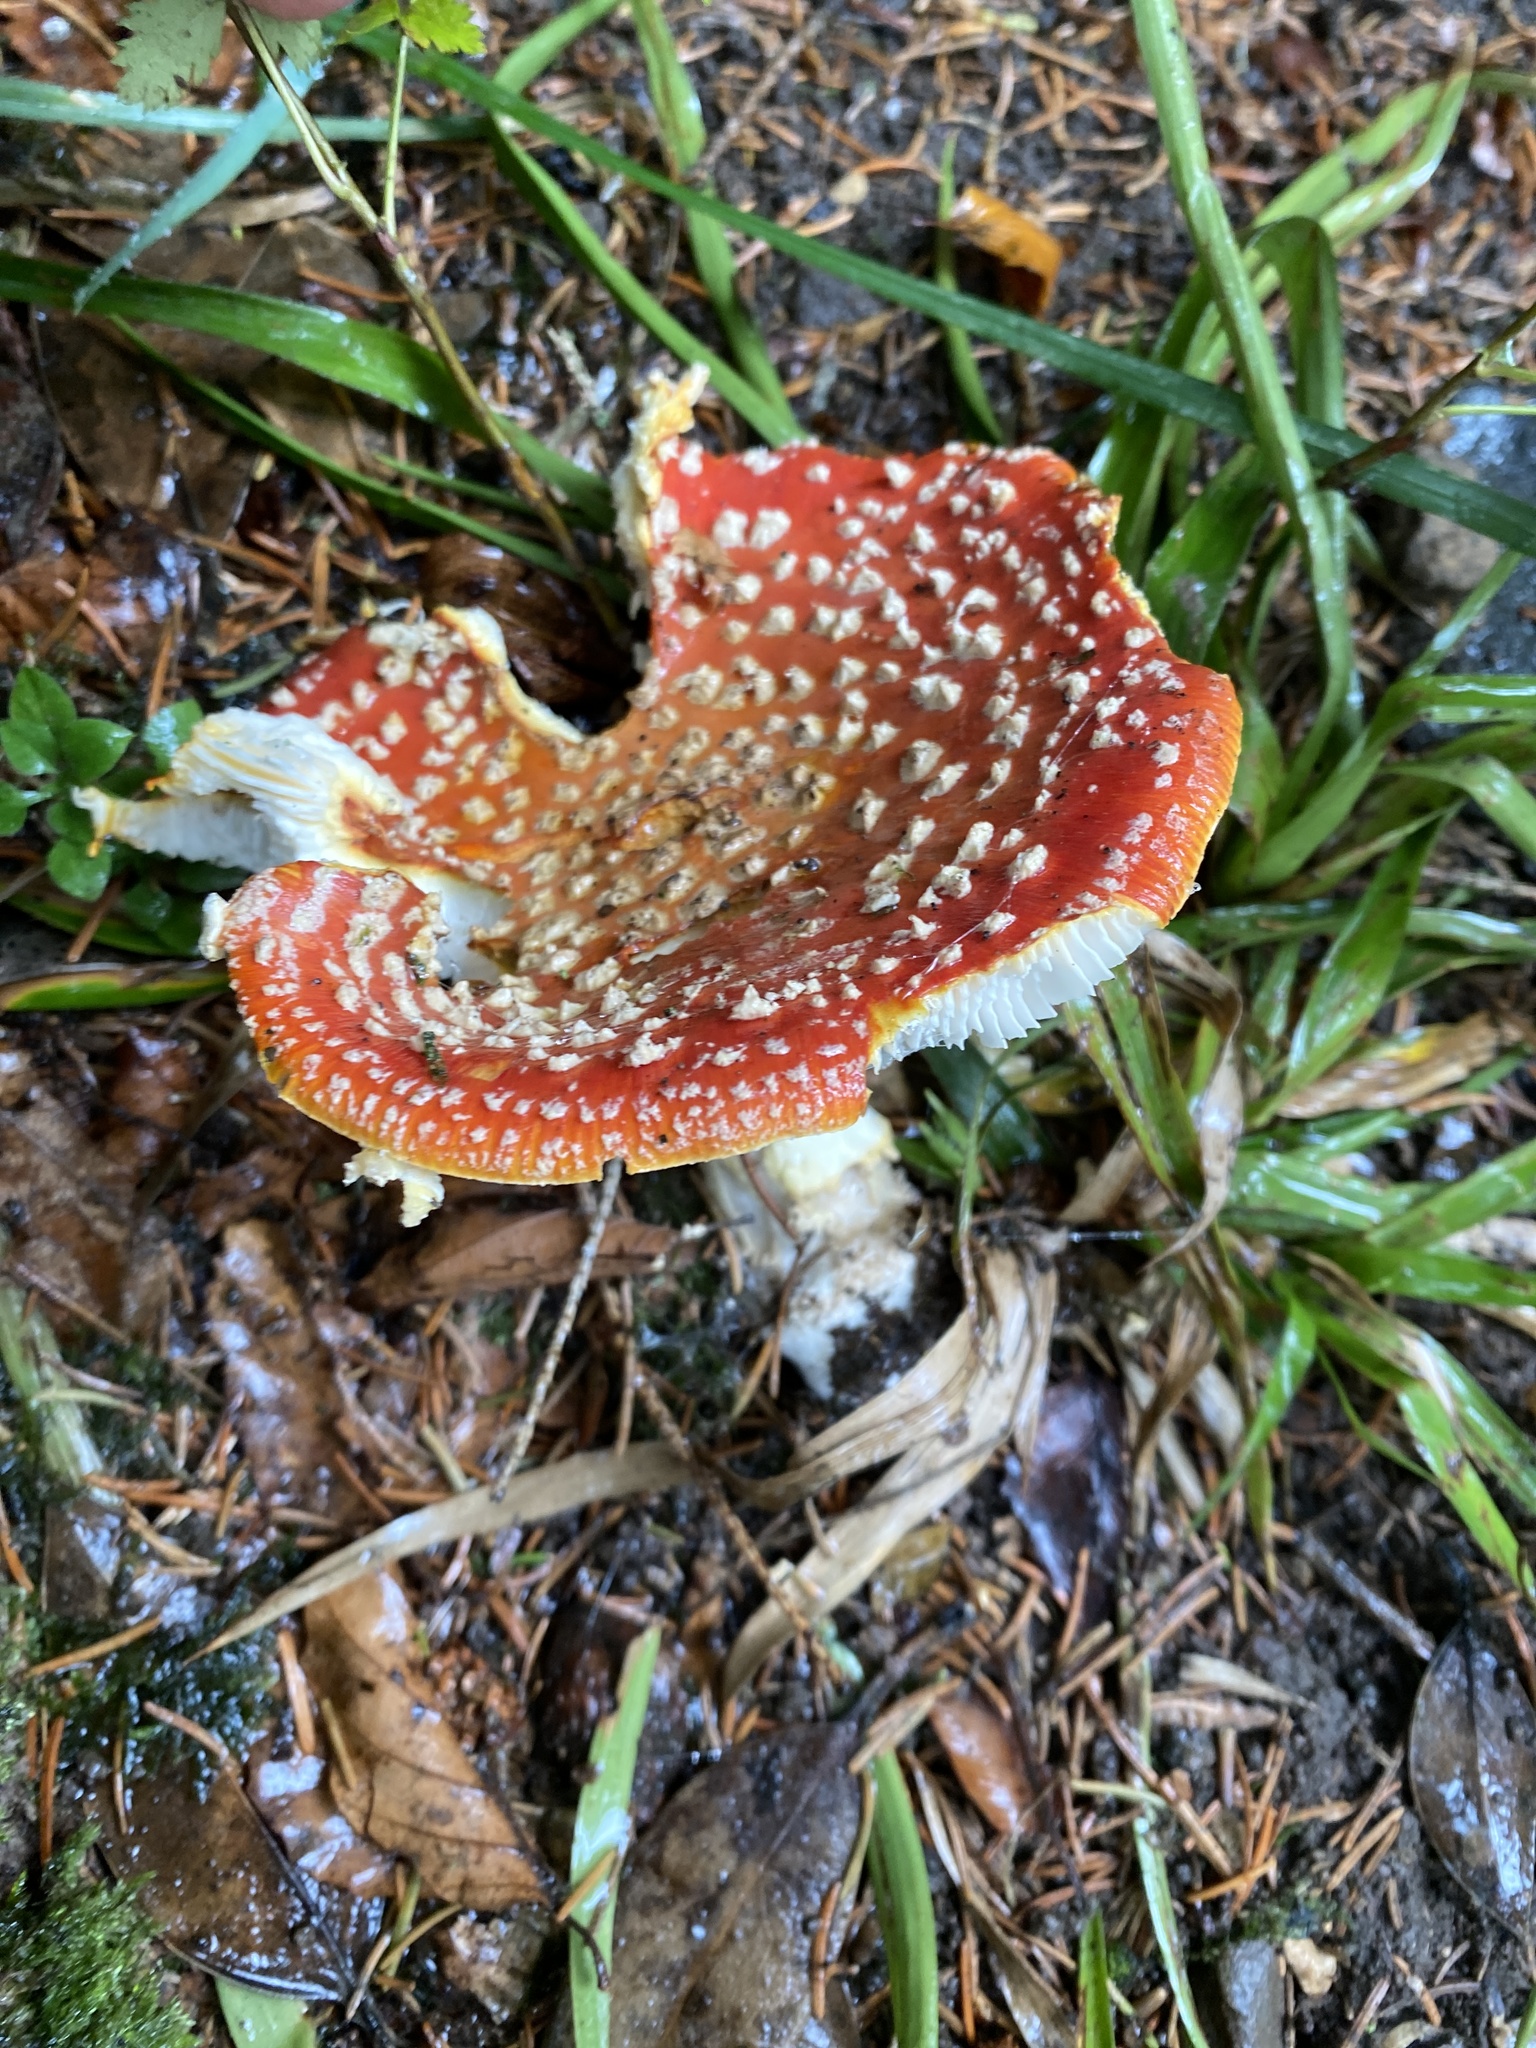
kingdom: Fungi
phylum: Basidiomycota
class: Agaricomycetes
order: Agaricales
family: Amanitaceae
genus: Amanita
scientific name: Amanita muscaria
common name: Fly agaric
